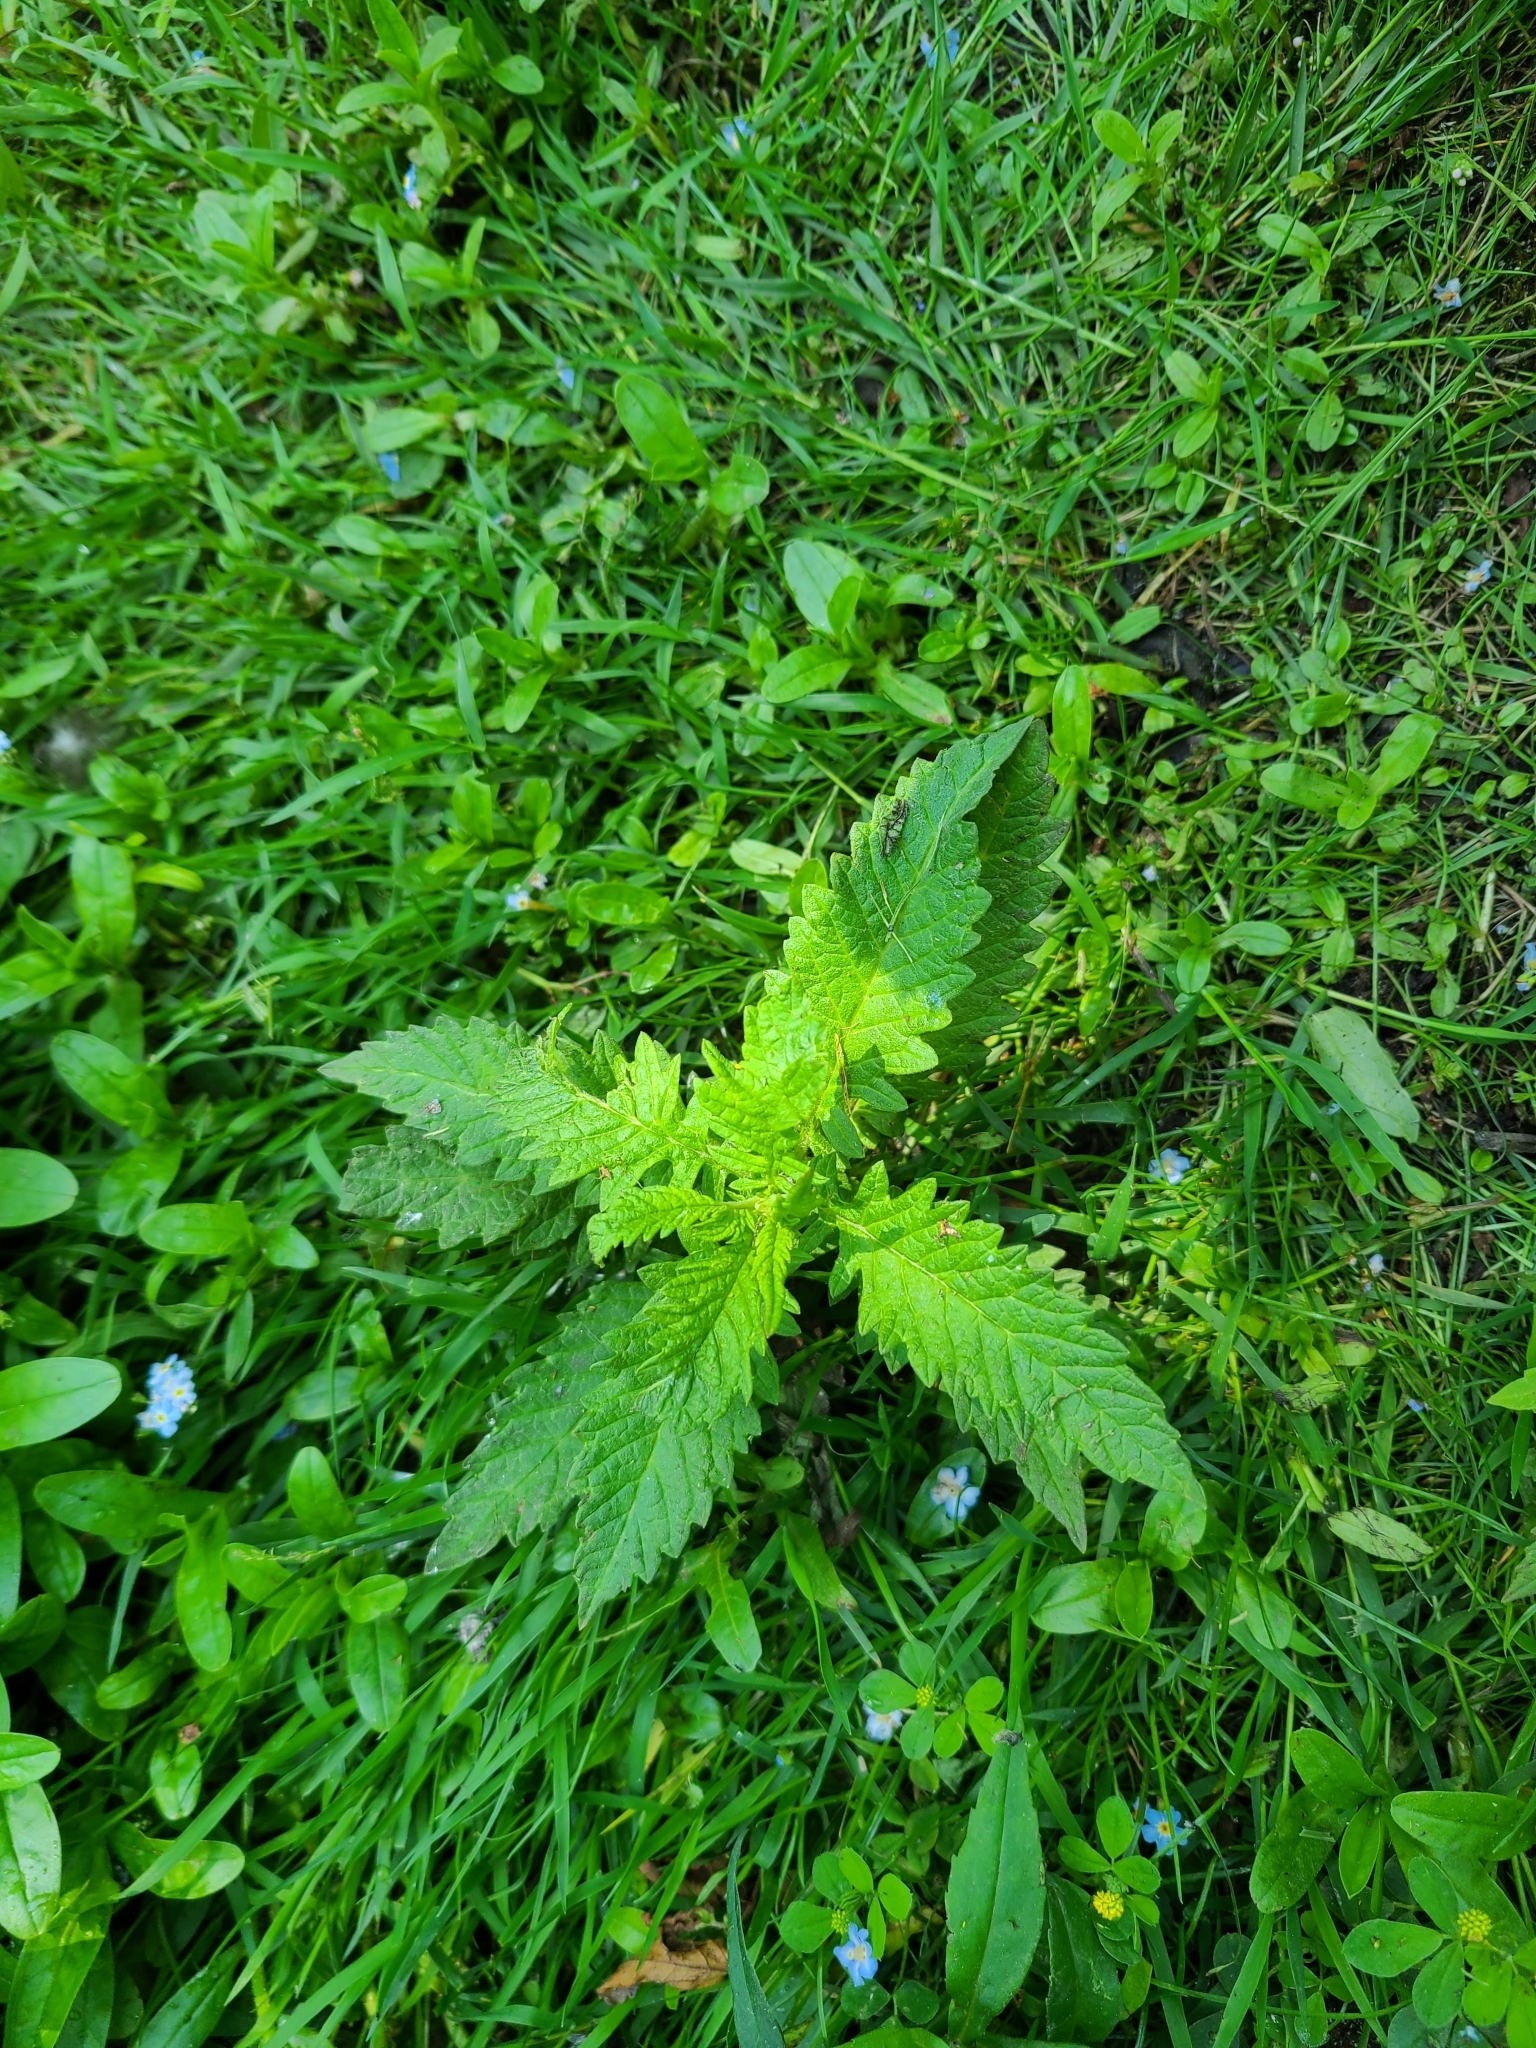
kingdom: Plantae
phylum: Tracheophyta
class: Magnoliopsida
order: Lamiales
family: Lamiaceae
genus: Lycopus
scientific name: Lycopus europaeus
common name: European bugleweed
